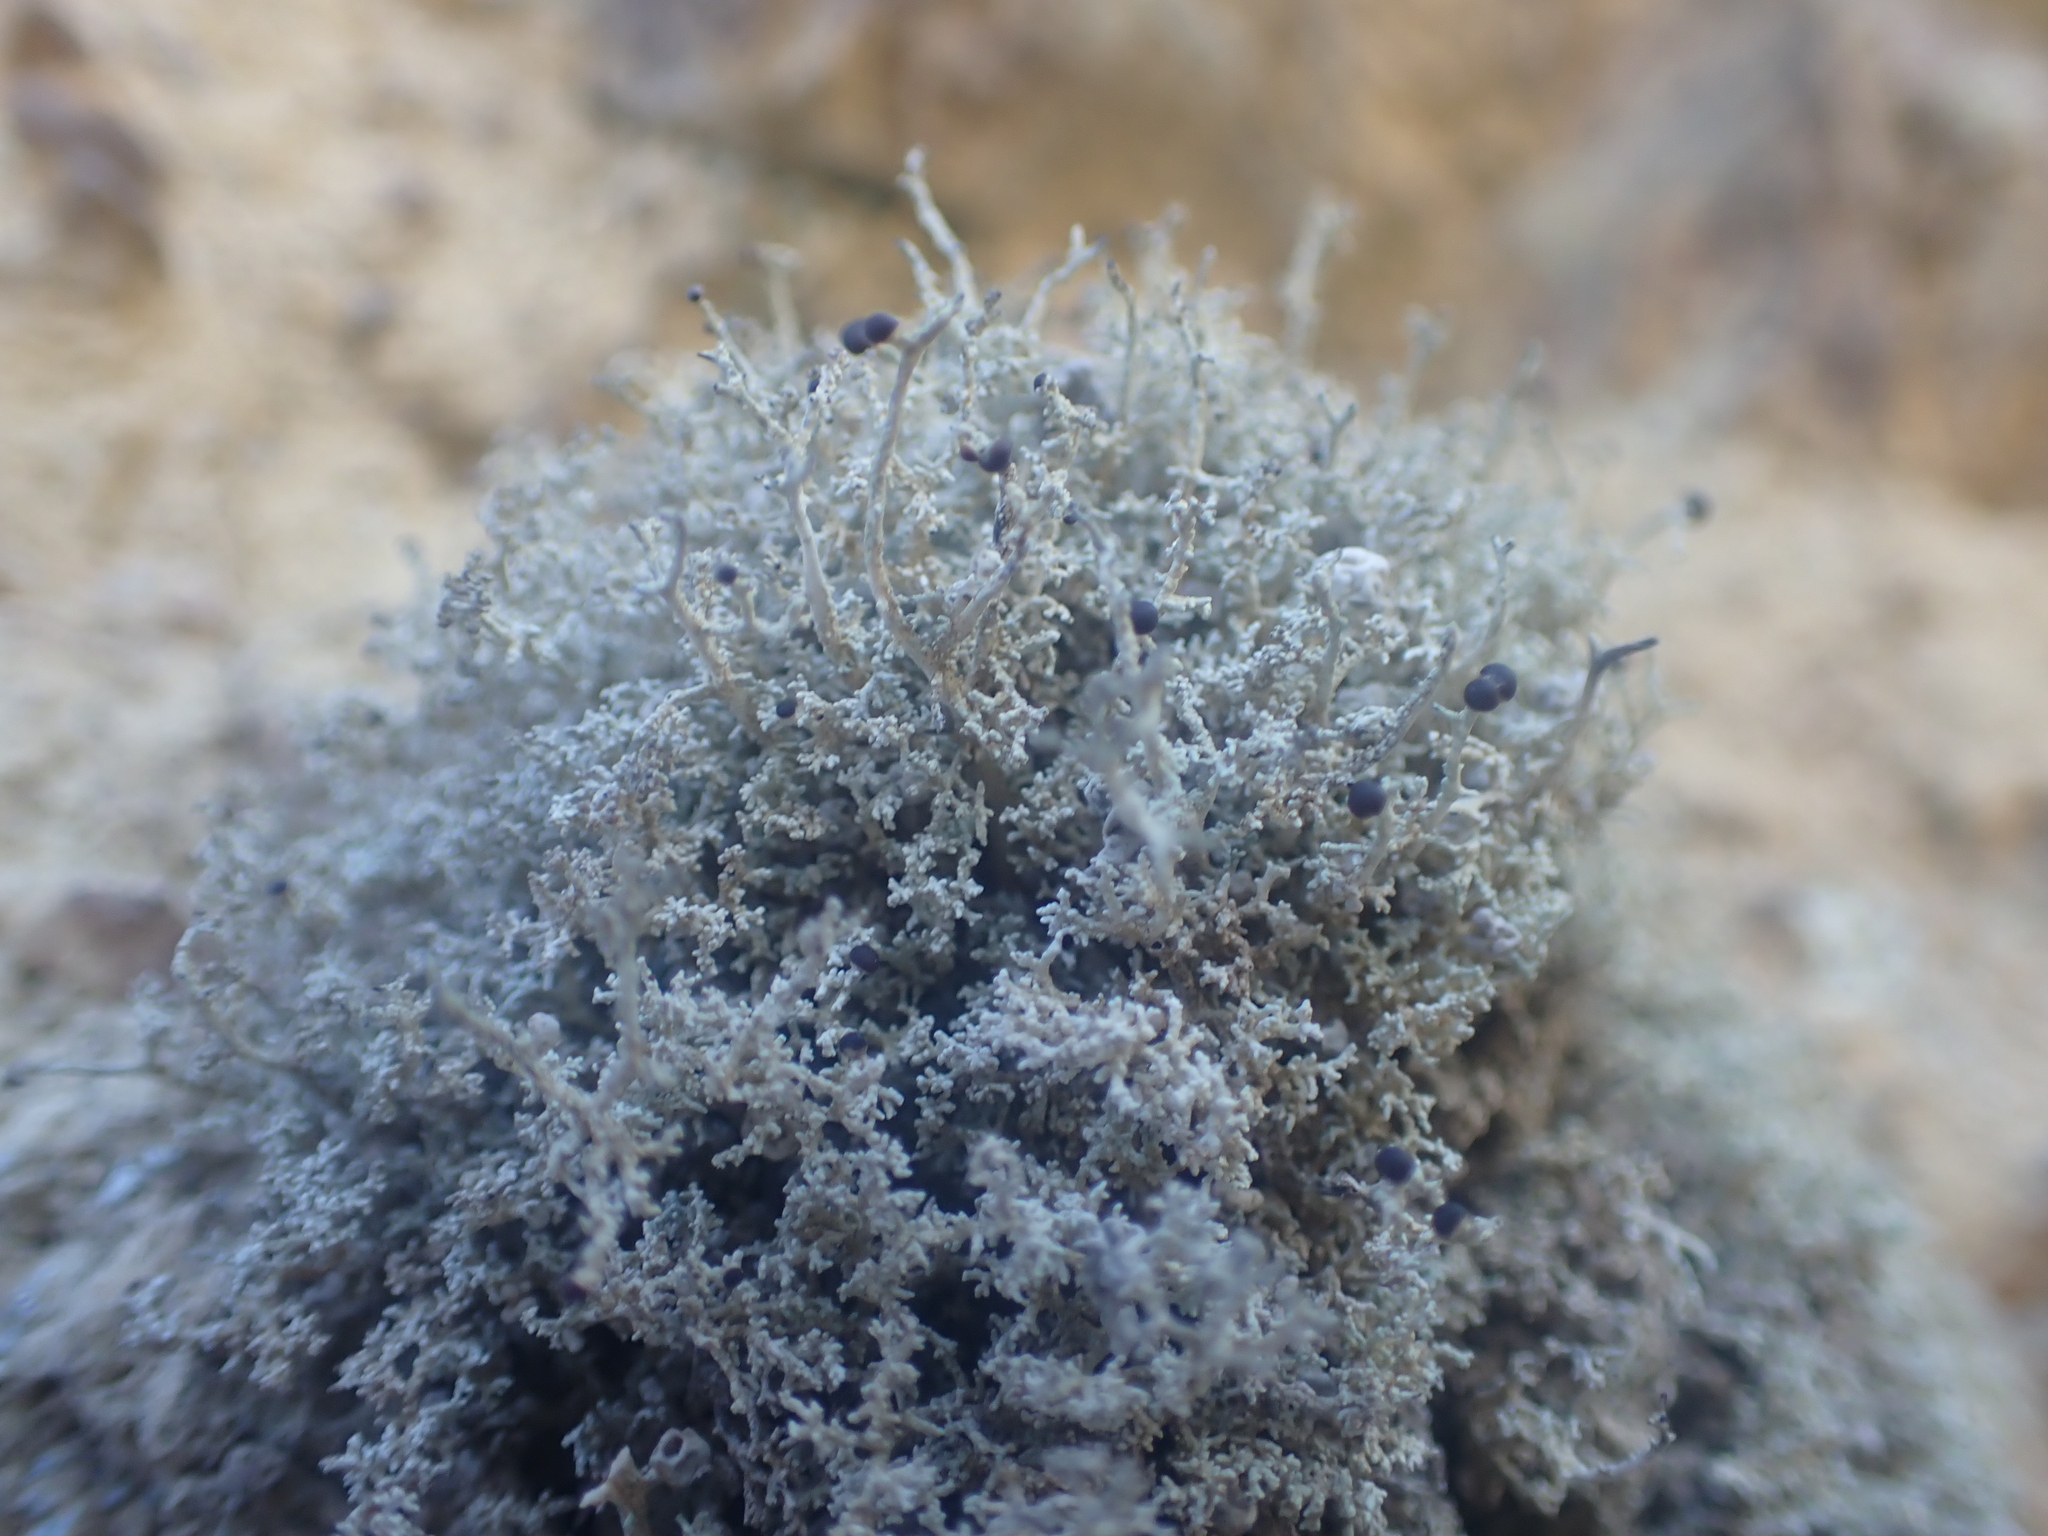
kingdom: Fungi
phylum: Ascomycota
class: Lecanoromycetes
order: Lecanorales
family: Stereocaulaceae
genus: Stereocaulon
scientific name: Stereocaulon ramulosum
